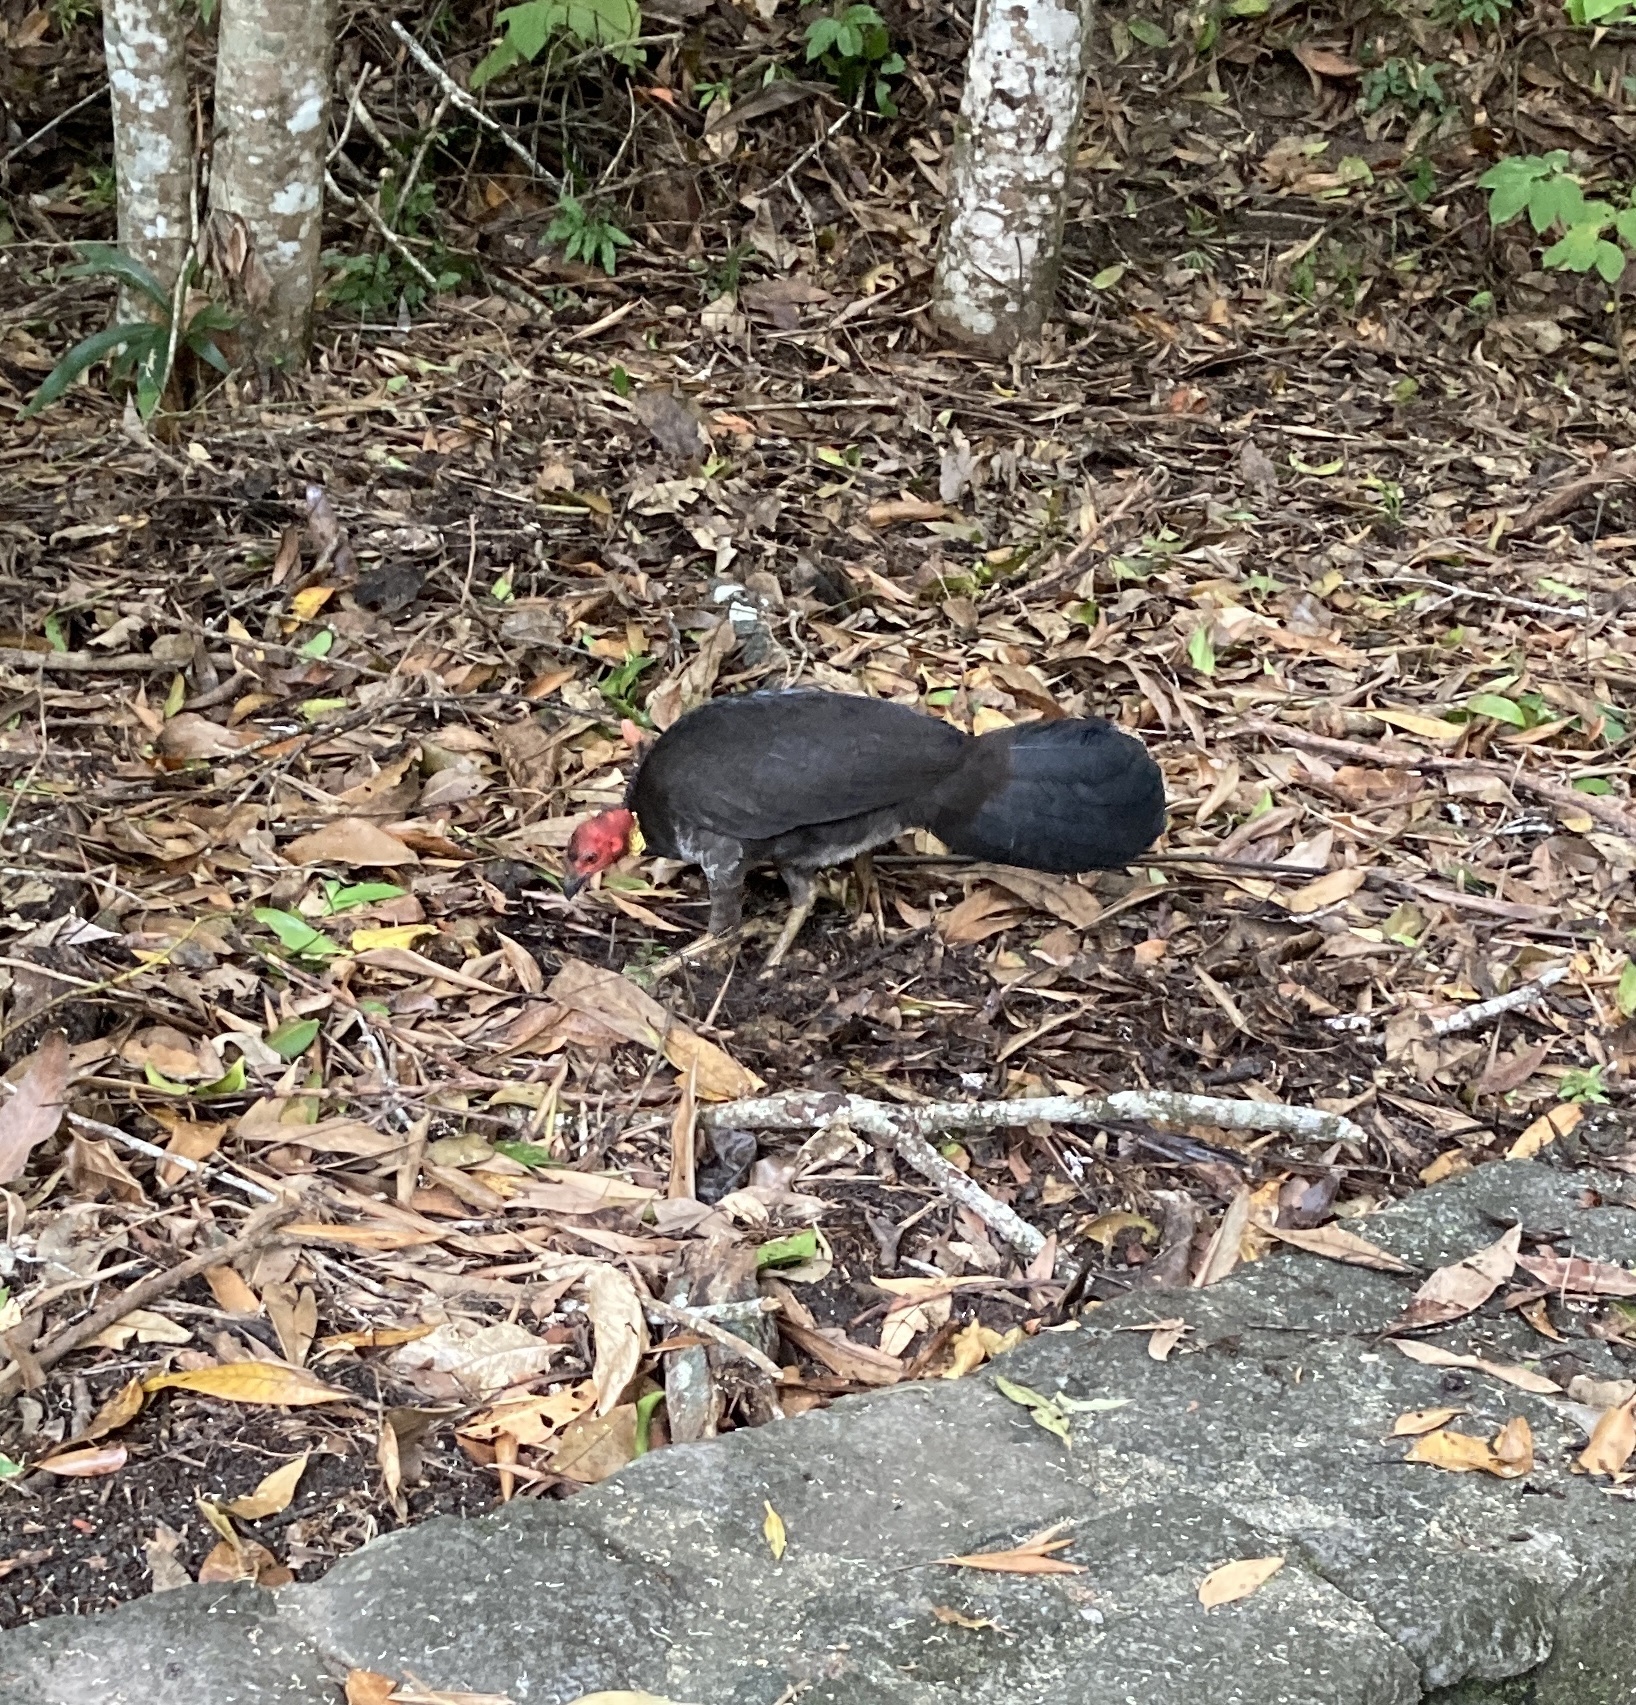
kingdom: Animalia
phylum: Chordata
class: Aves
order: Galliformes
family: Megapodiidae
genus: Alectura
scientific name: Alectura lathami
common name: Australian brushturkey
